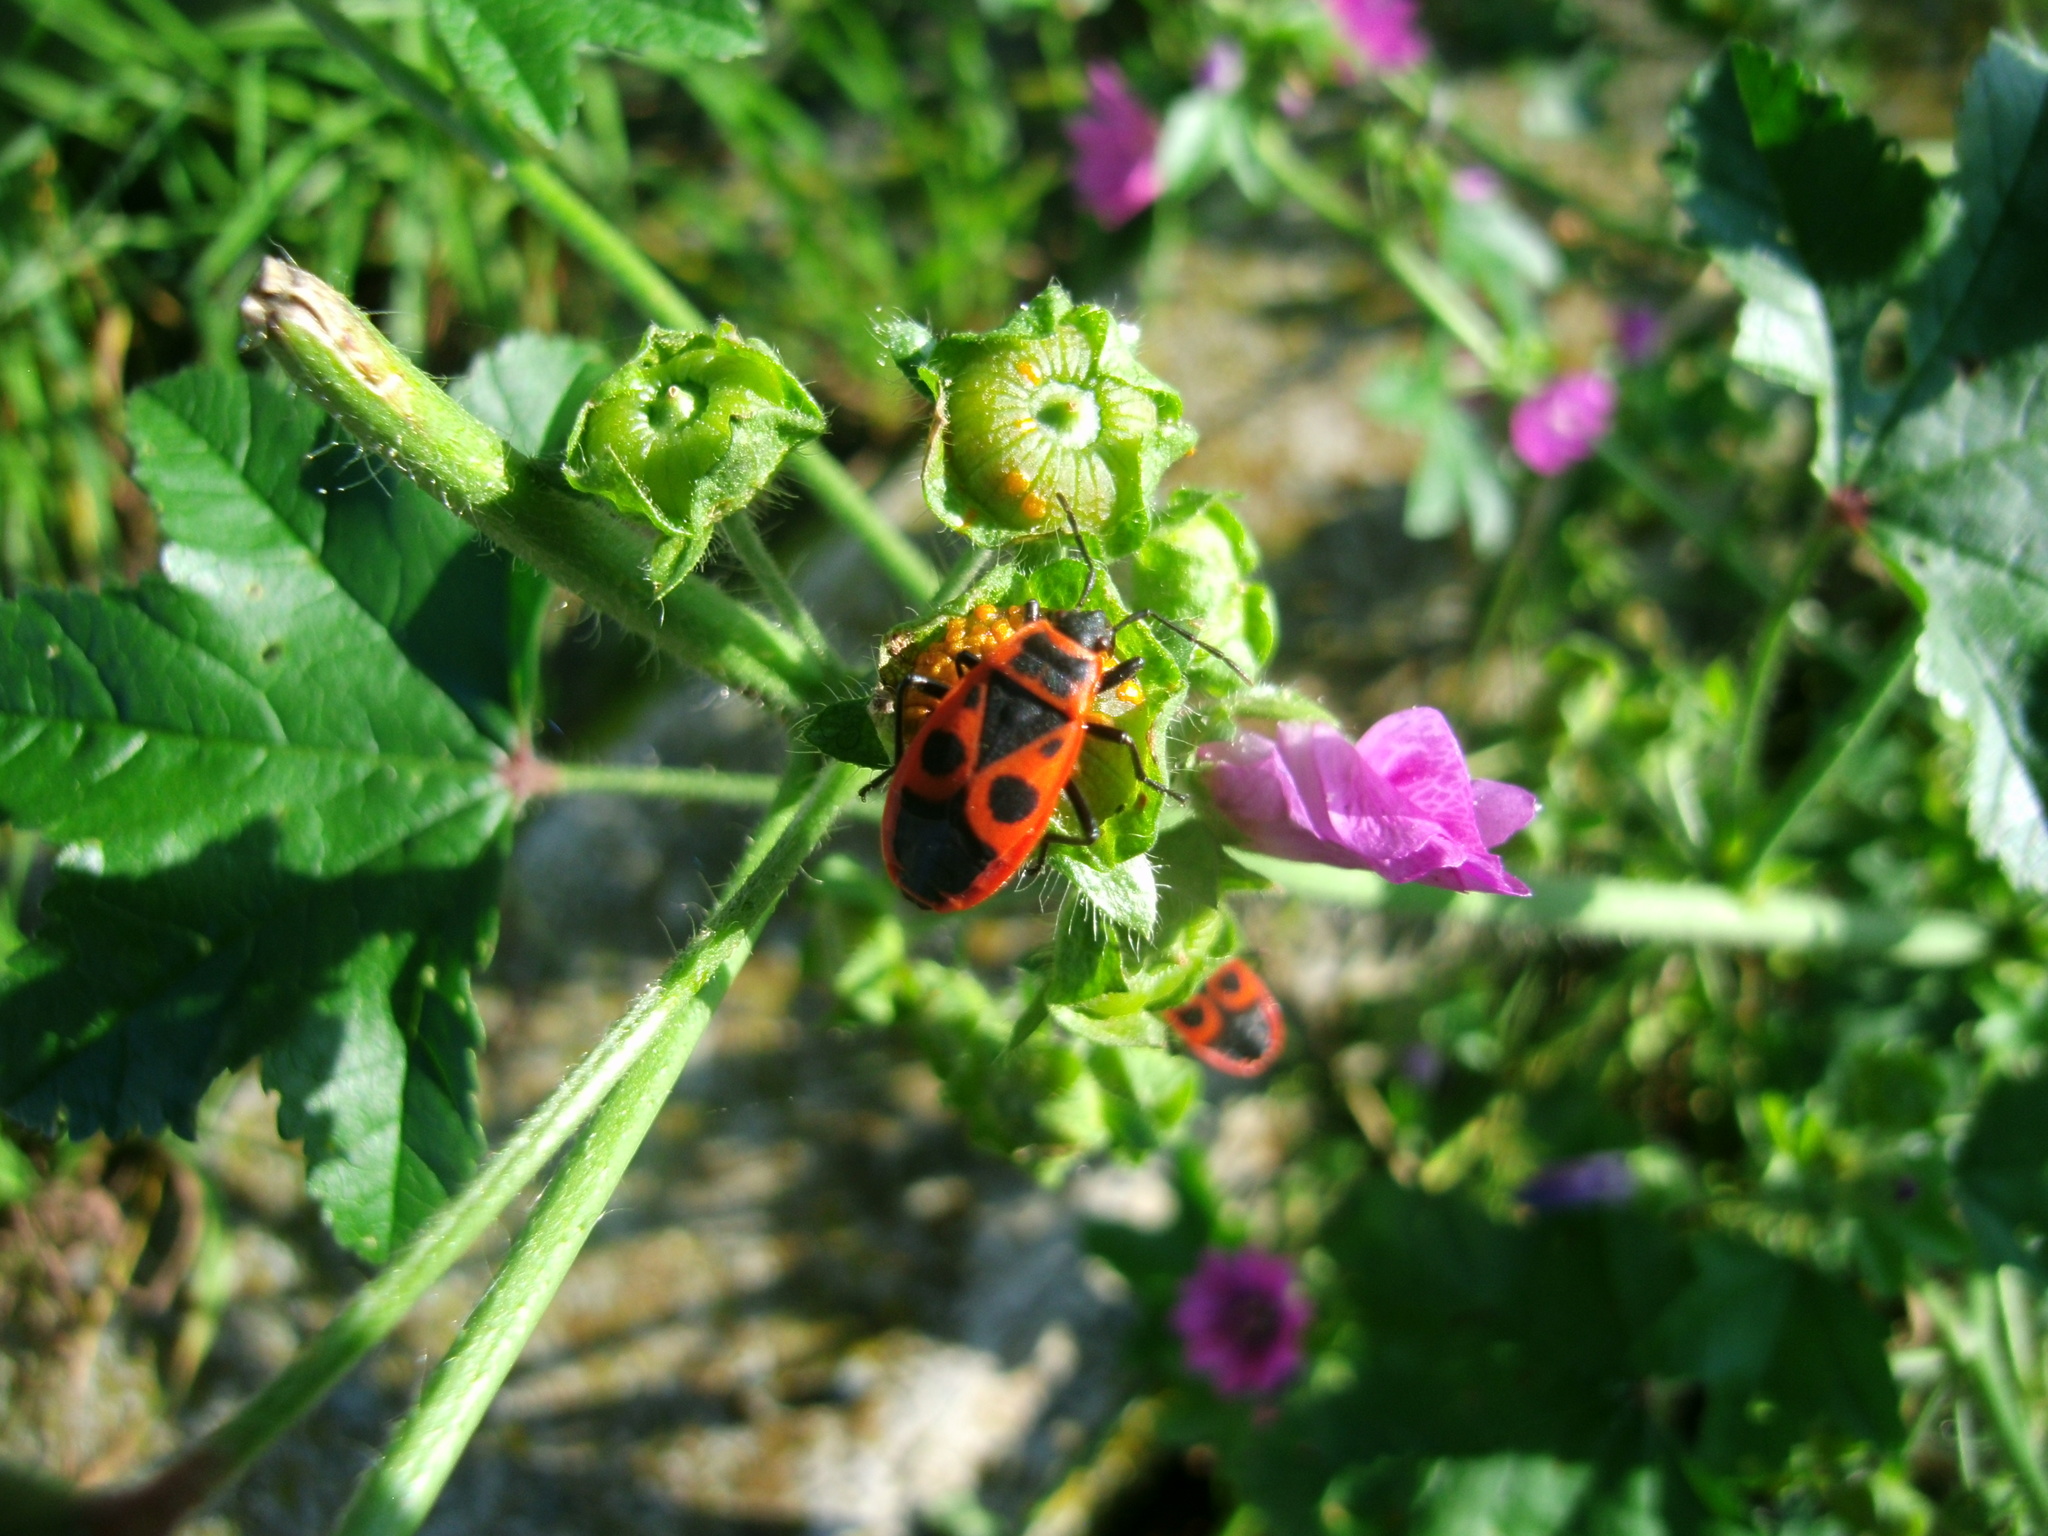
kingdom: Animalia
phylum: Arthropoda
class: Insecta
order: Hemiptera
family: Pyrrhocoridae
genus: Pyrrhocoris
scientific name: Pyrrhocoris apterus
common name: Firebug
